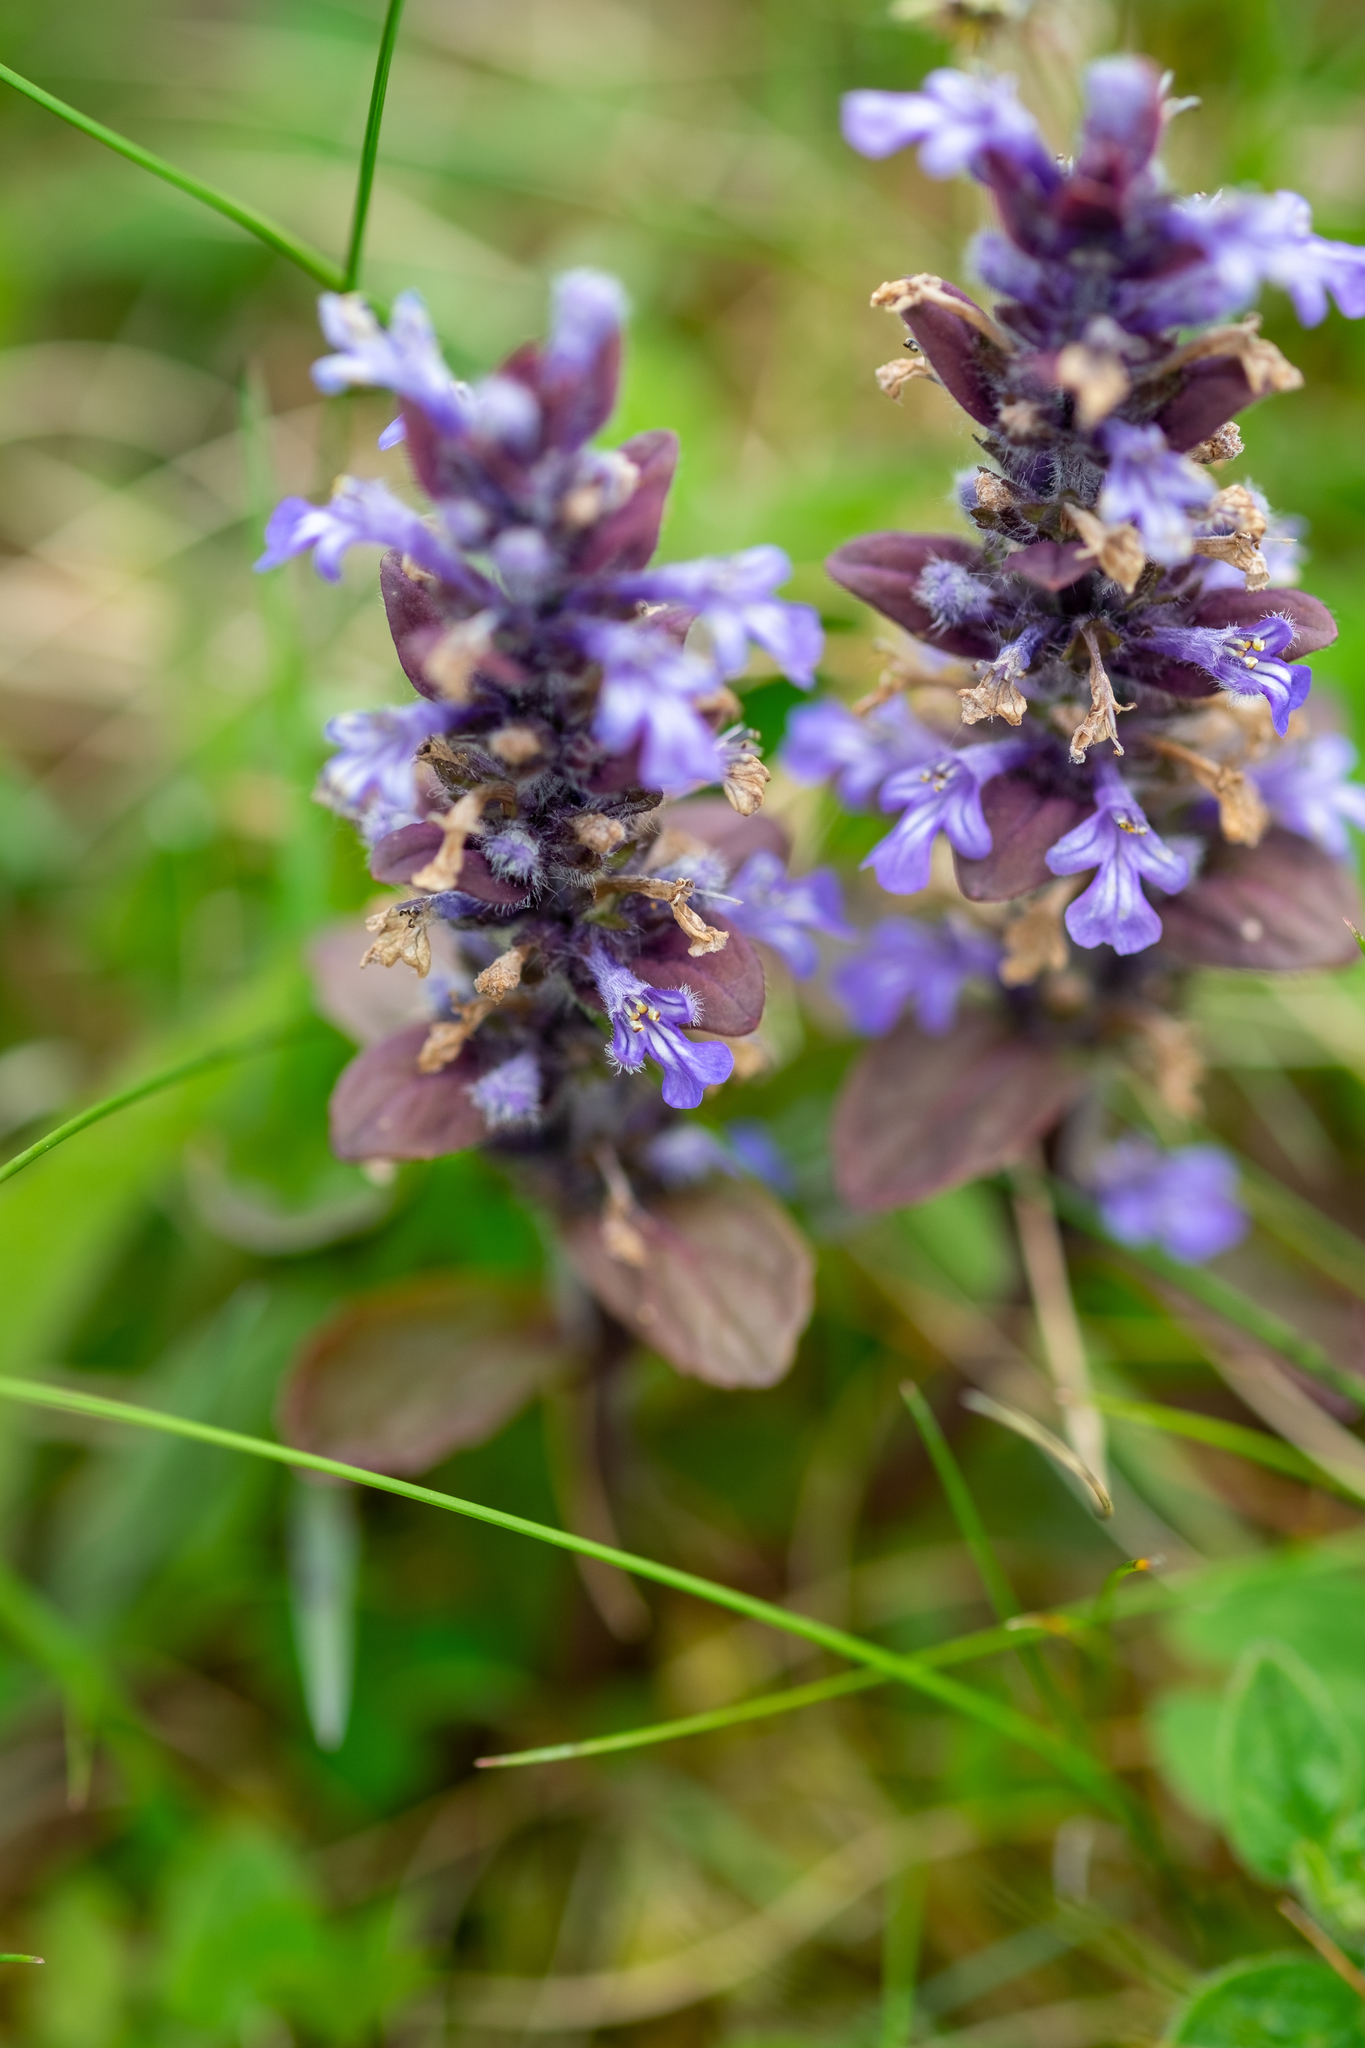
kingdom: Plantae
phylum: Tracheophyta
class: Magnoliopsida
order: Lamiales
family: Lamiaceae
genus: Ajuga
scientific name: Ajuga reptans
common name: Bugle
